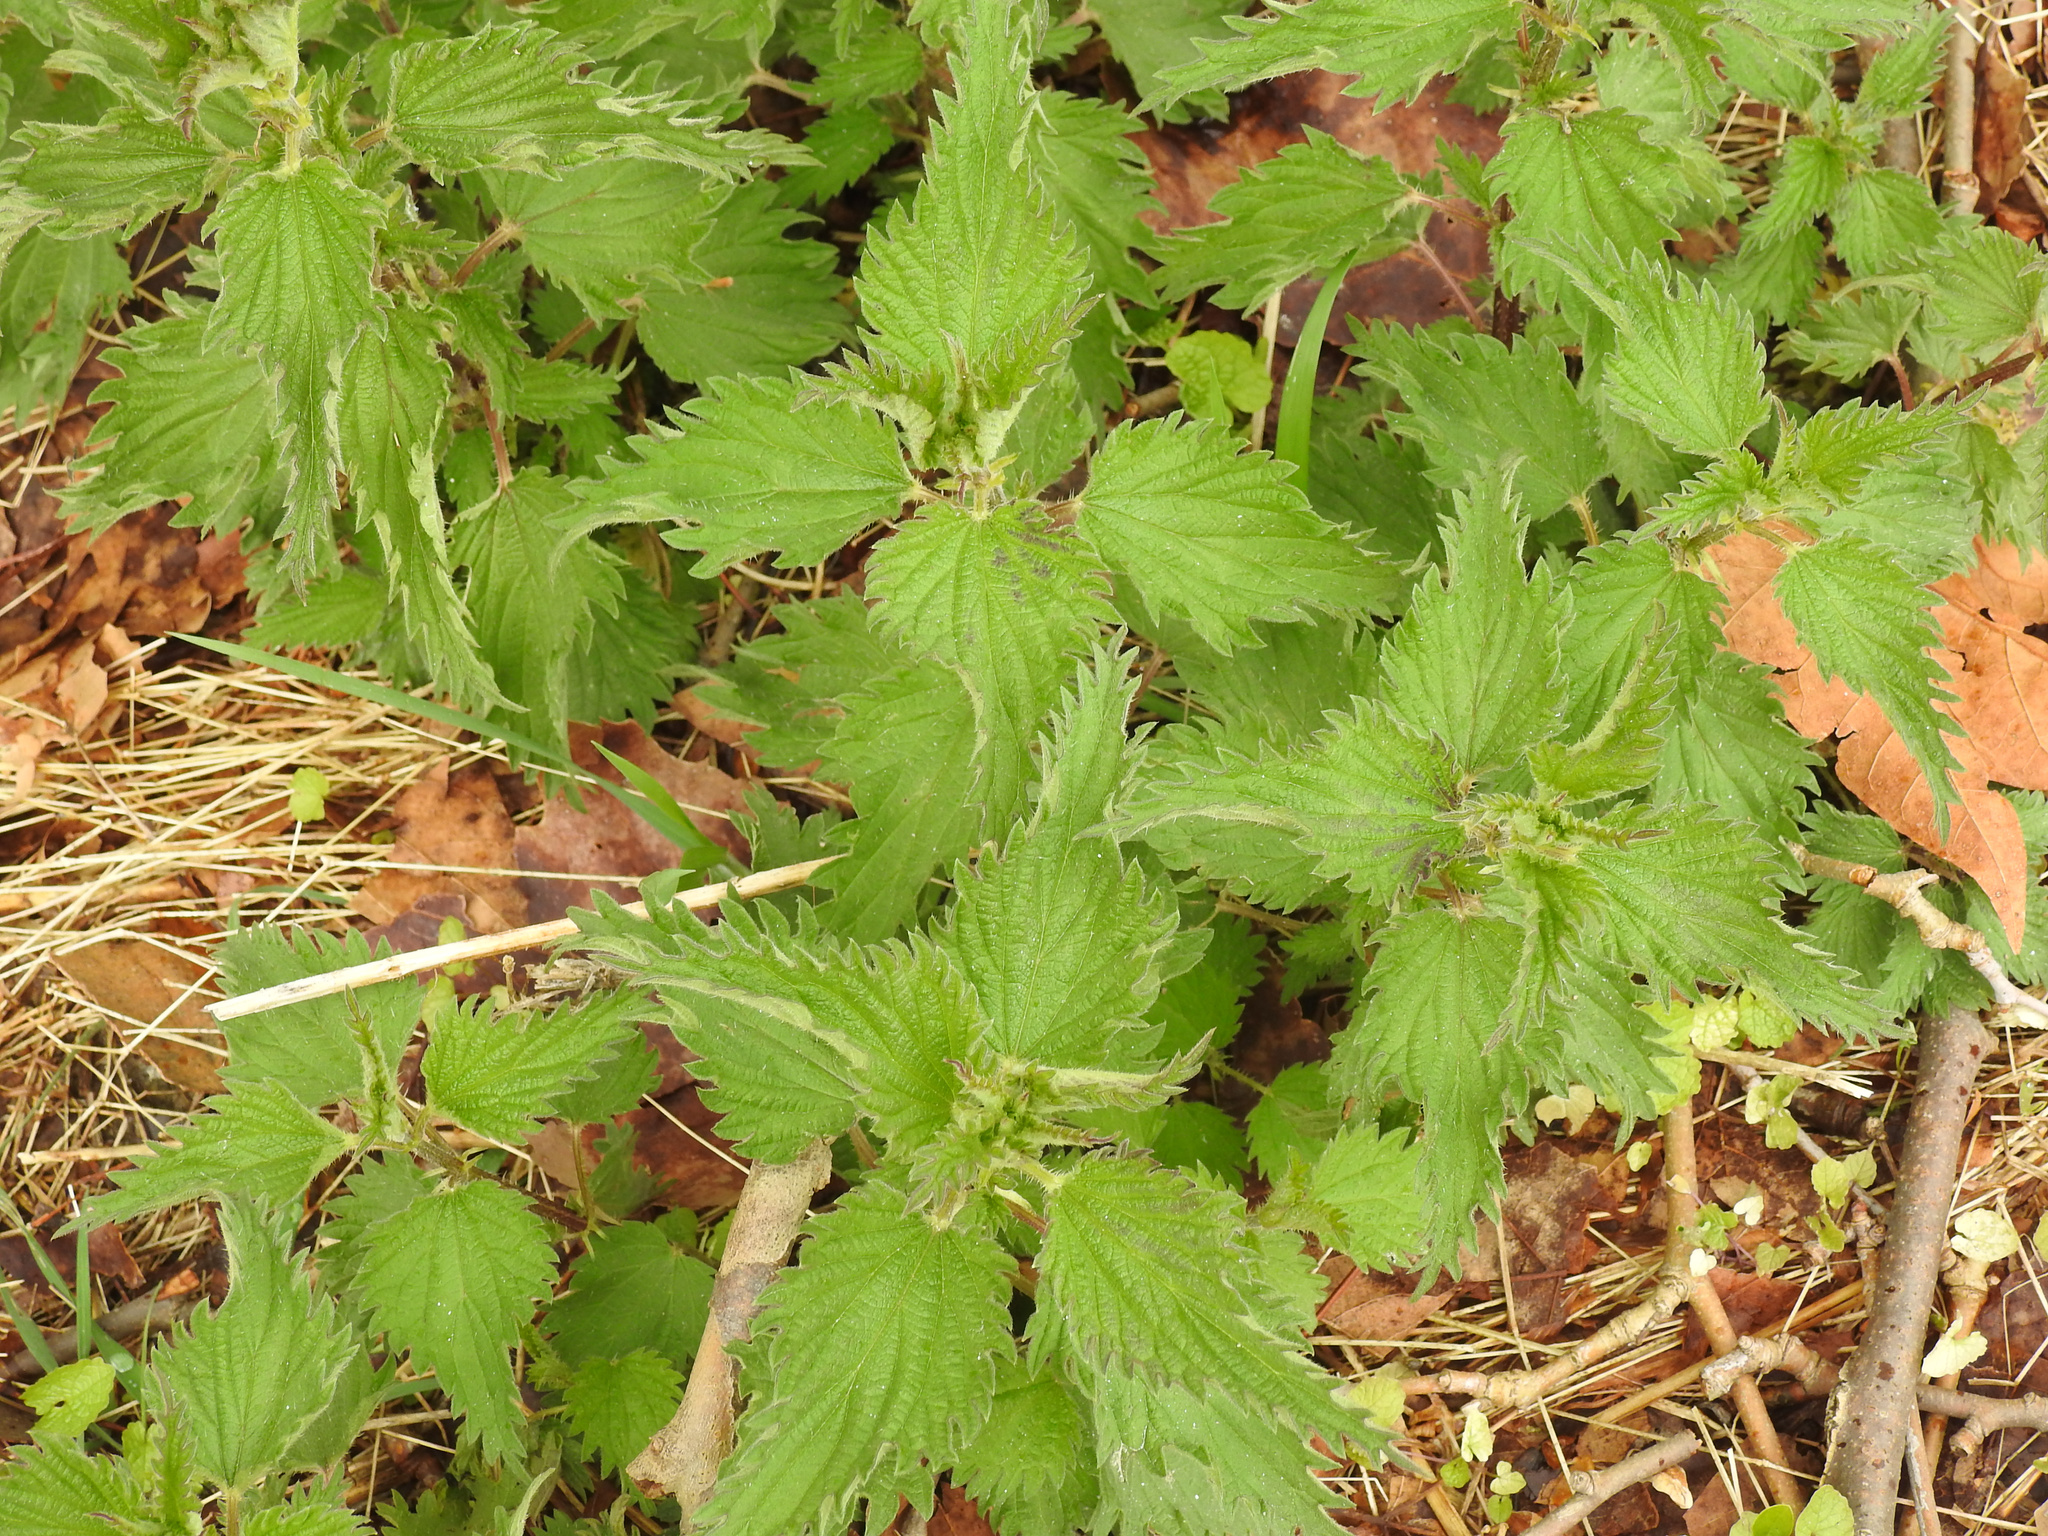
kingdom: Plantae
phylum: Tracheophyta
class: Magnoliopsida
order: Rosales
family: Urticaceae
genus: Urtica
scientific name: Urtica dioica
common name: Common nettle
